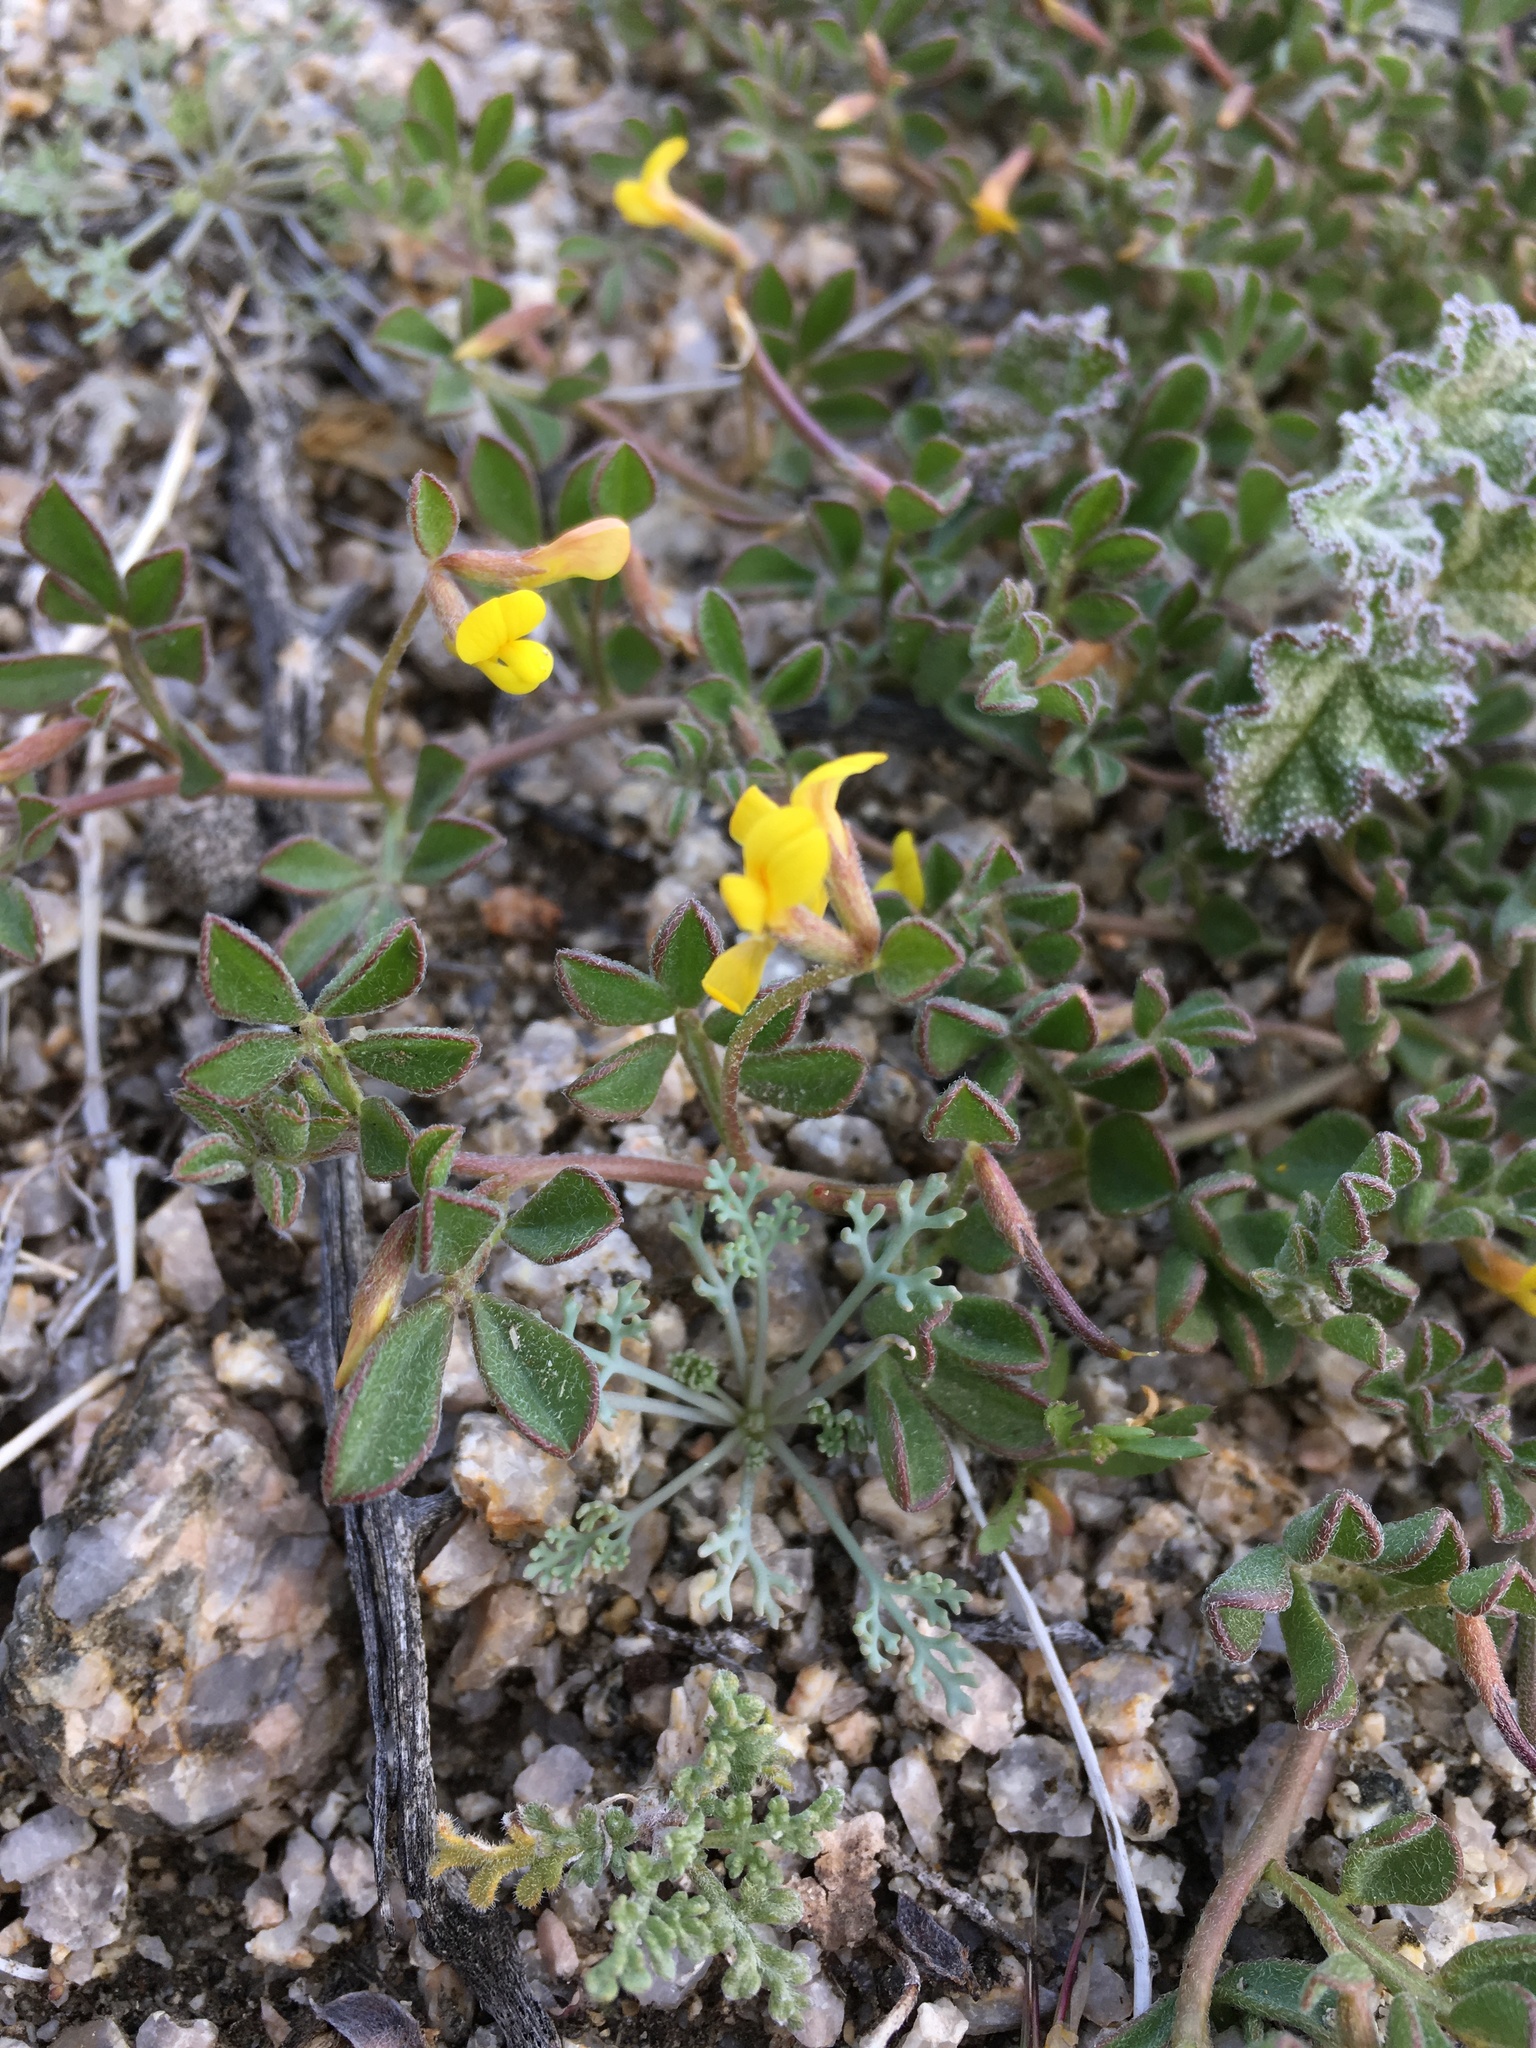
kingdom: Plantae
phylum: Tracheophyta
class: Magnoliopsida
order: Fabales
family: Fabaceae
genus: Acmispon
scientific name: Acmispon strigosus
